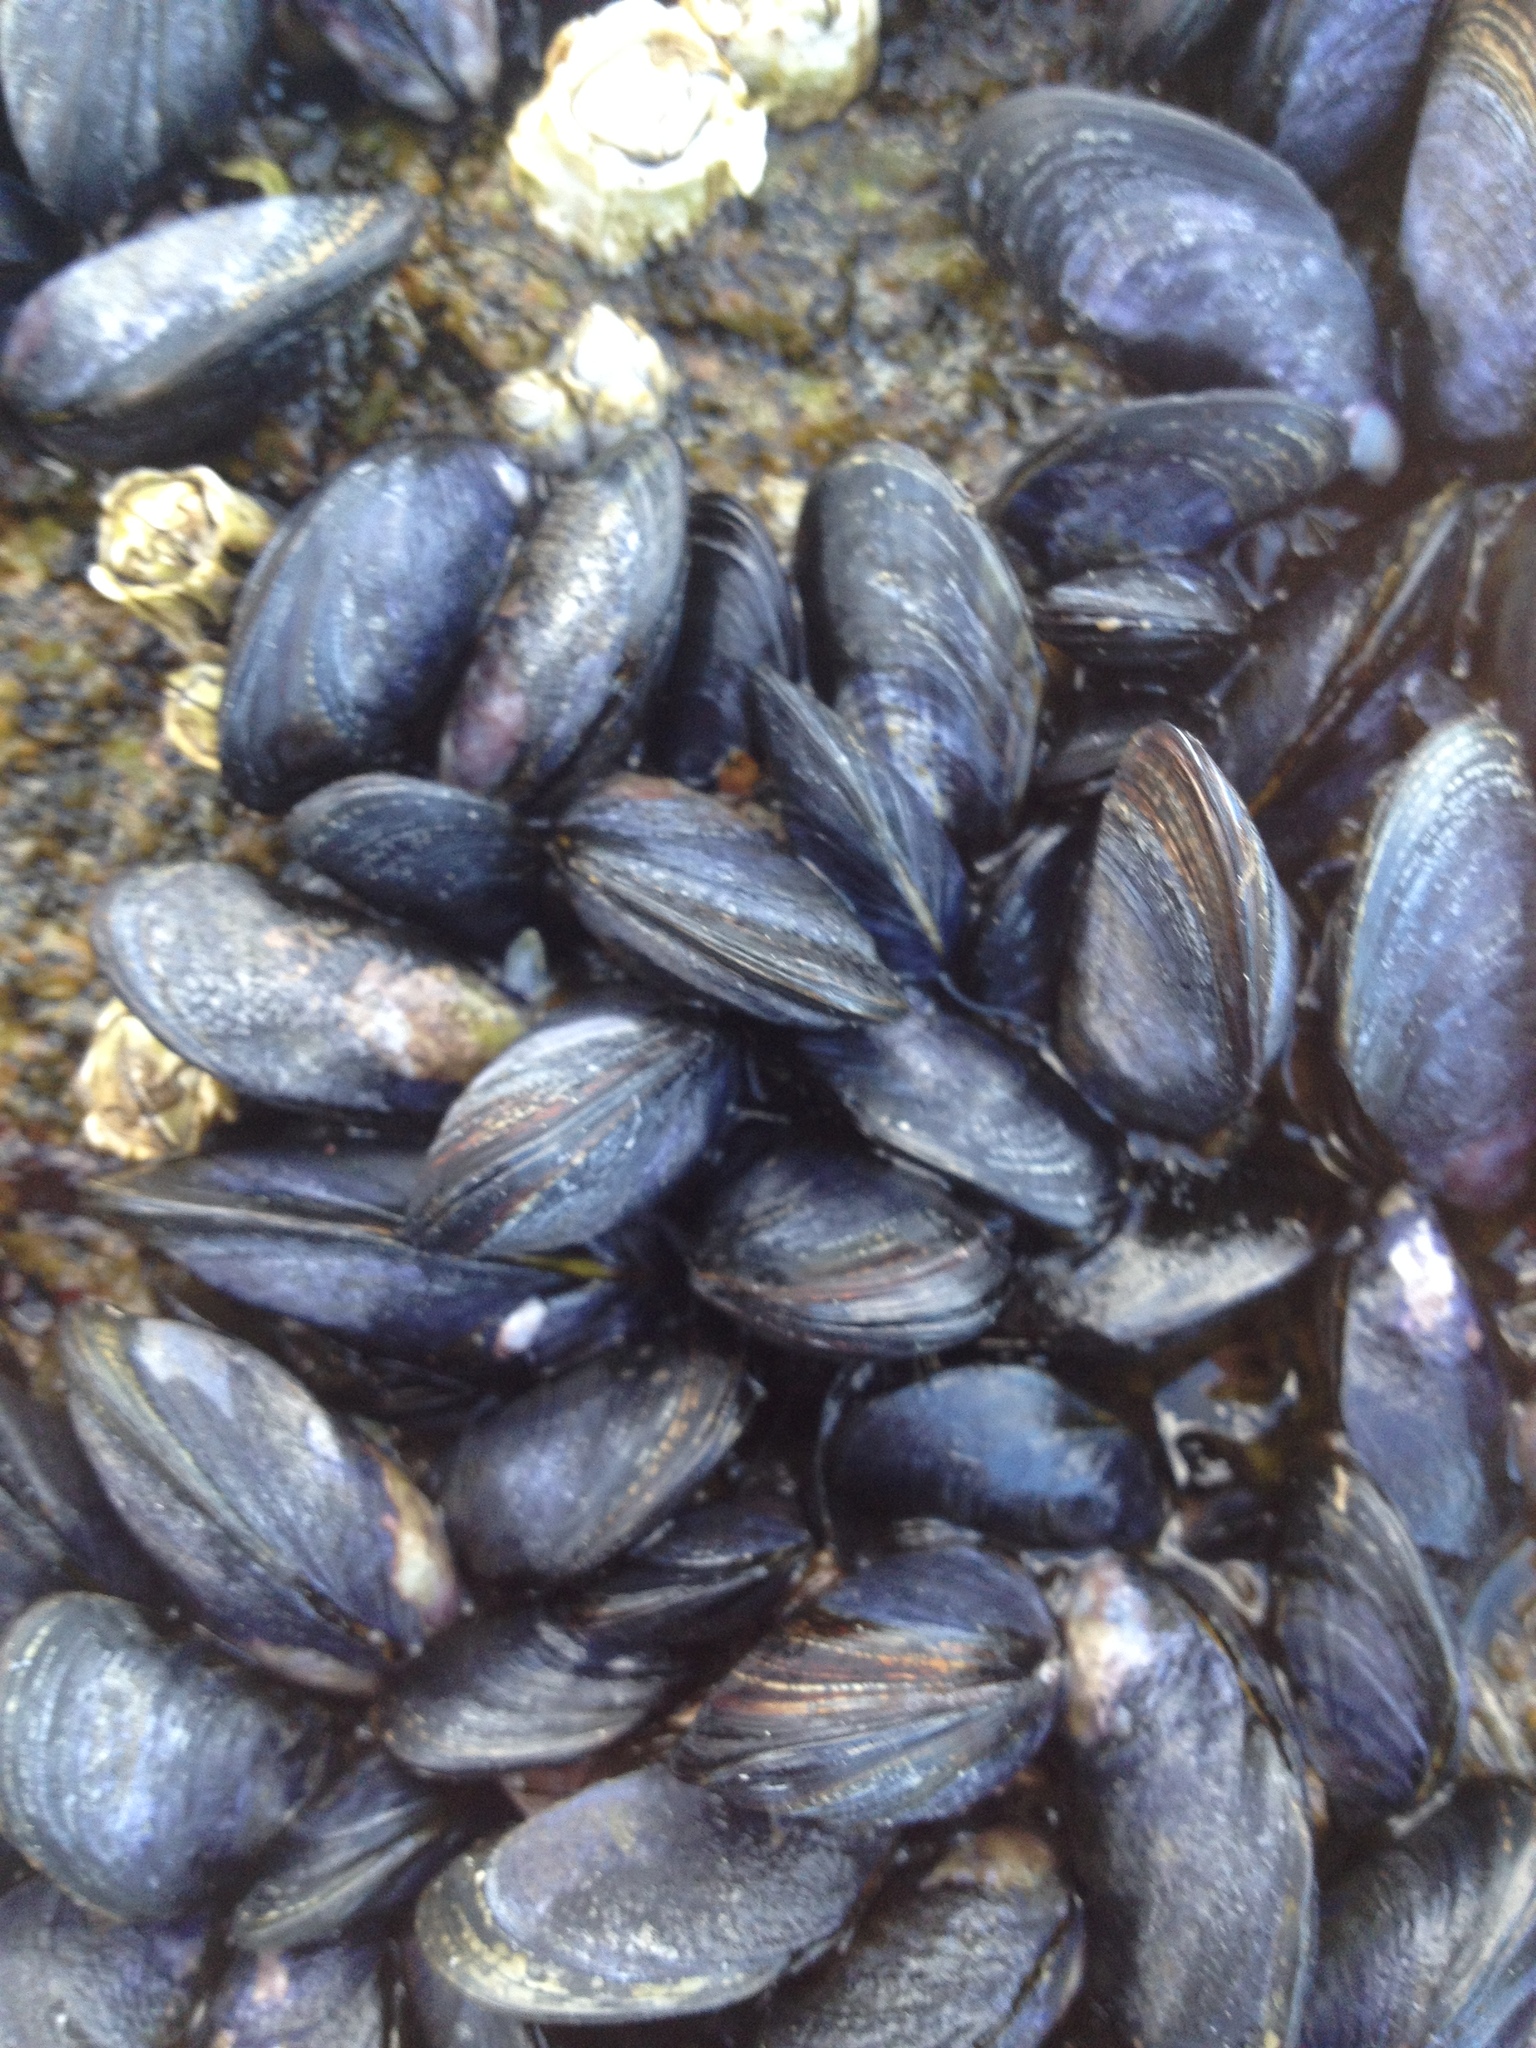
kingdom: Animalia
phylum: Mollusca
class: Bivalvia
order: Mytilida
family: Mytilidae
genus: Mytilus
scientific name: Mytilus edulis
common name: Blue mussel
